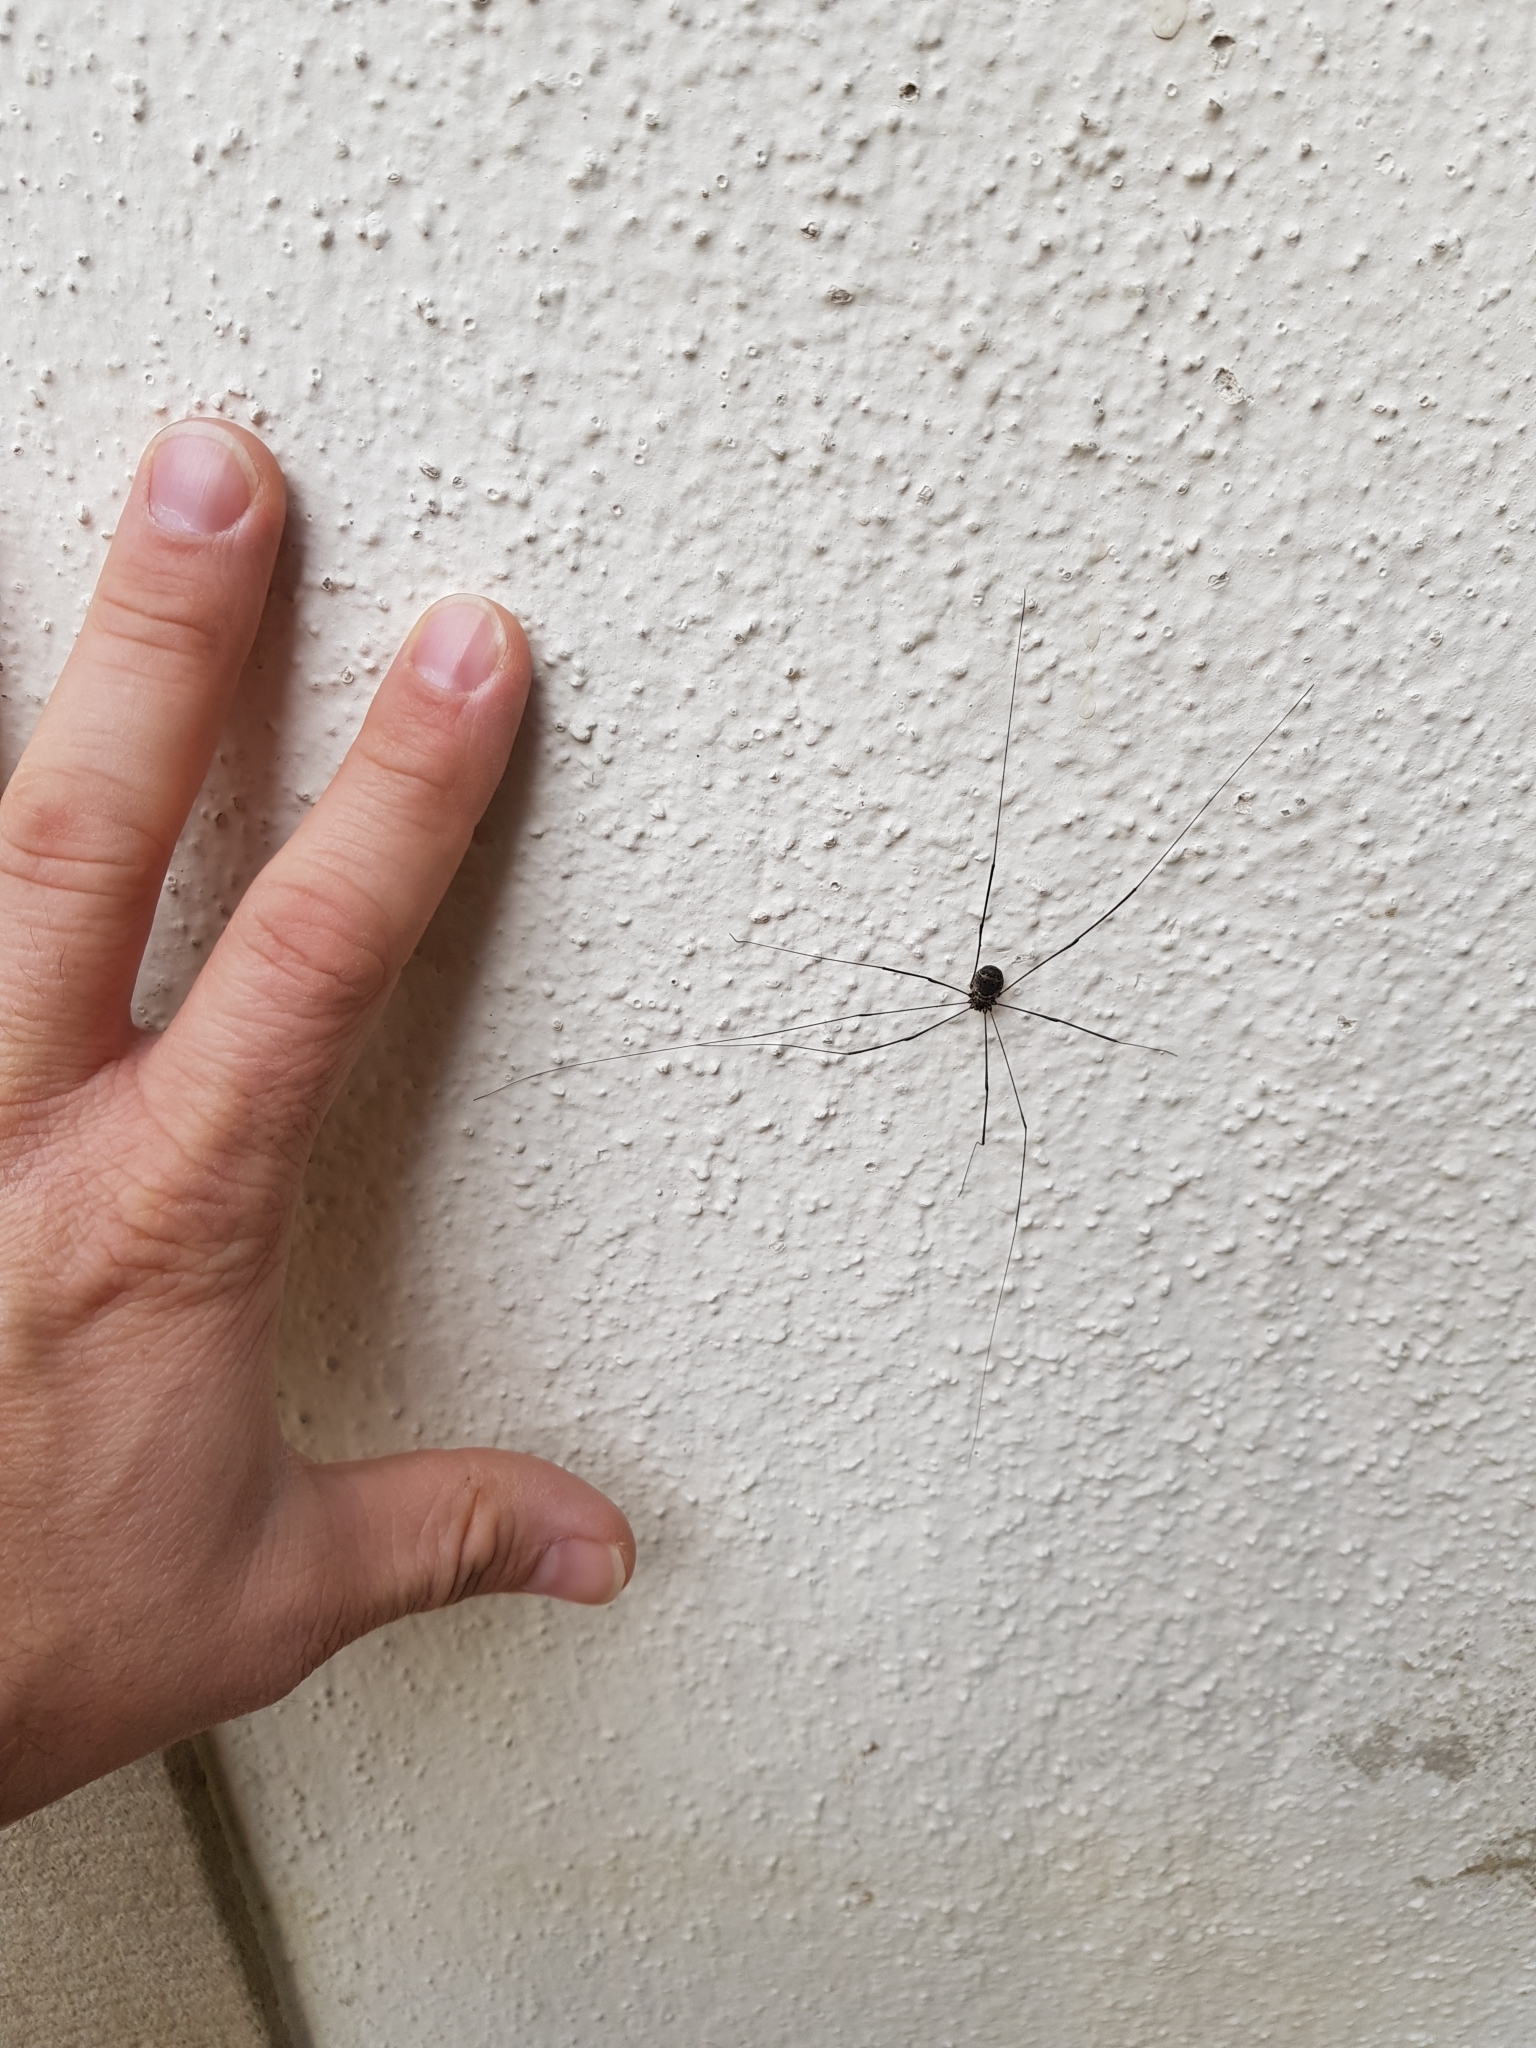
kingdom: Animalia
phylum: Arthropoda
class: Arachnida
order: Opiliones
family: Sclerosomatidae
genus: Leiobunum
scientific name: Leiobunum
